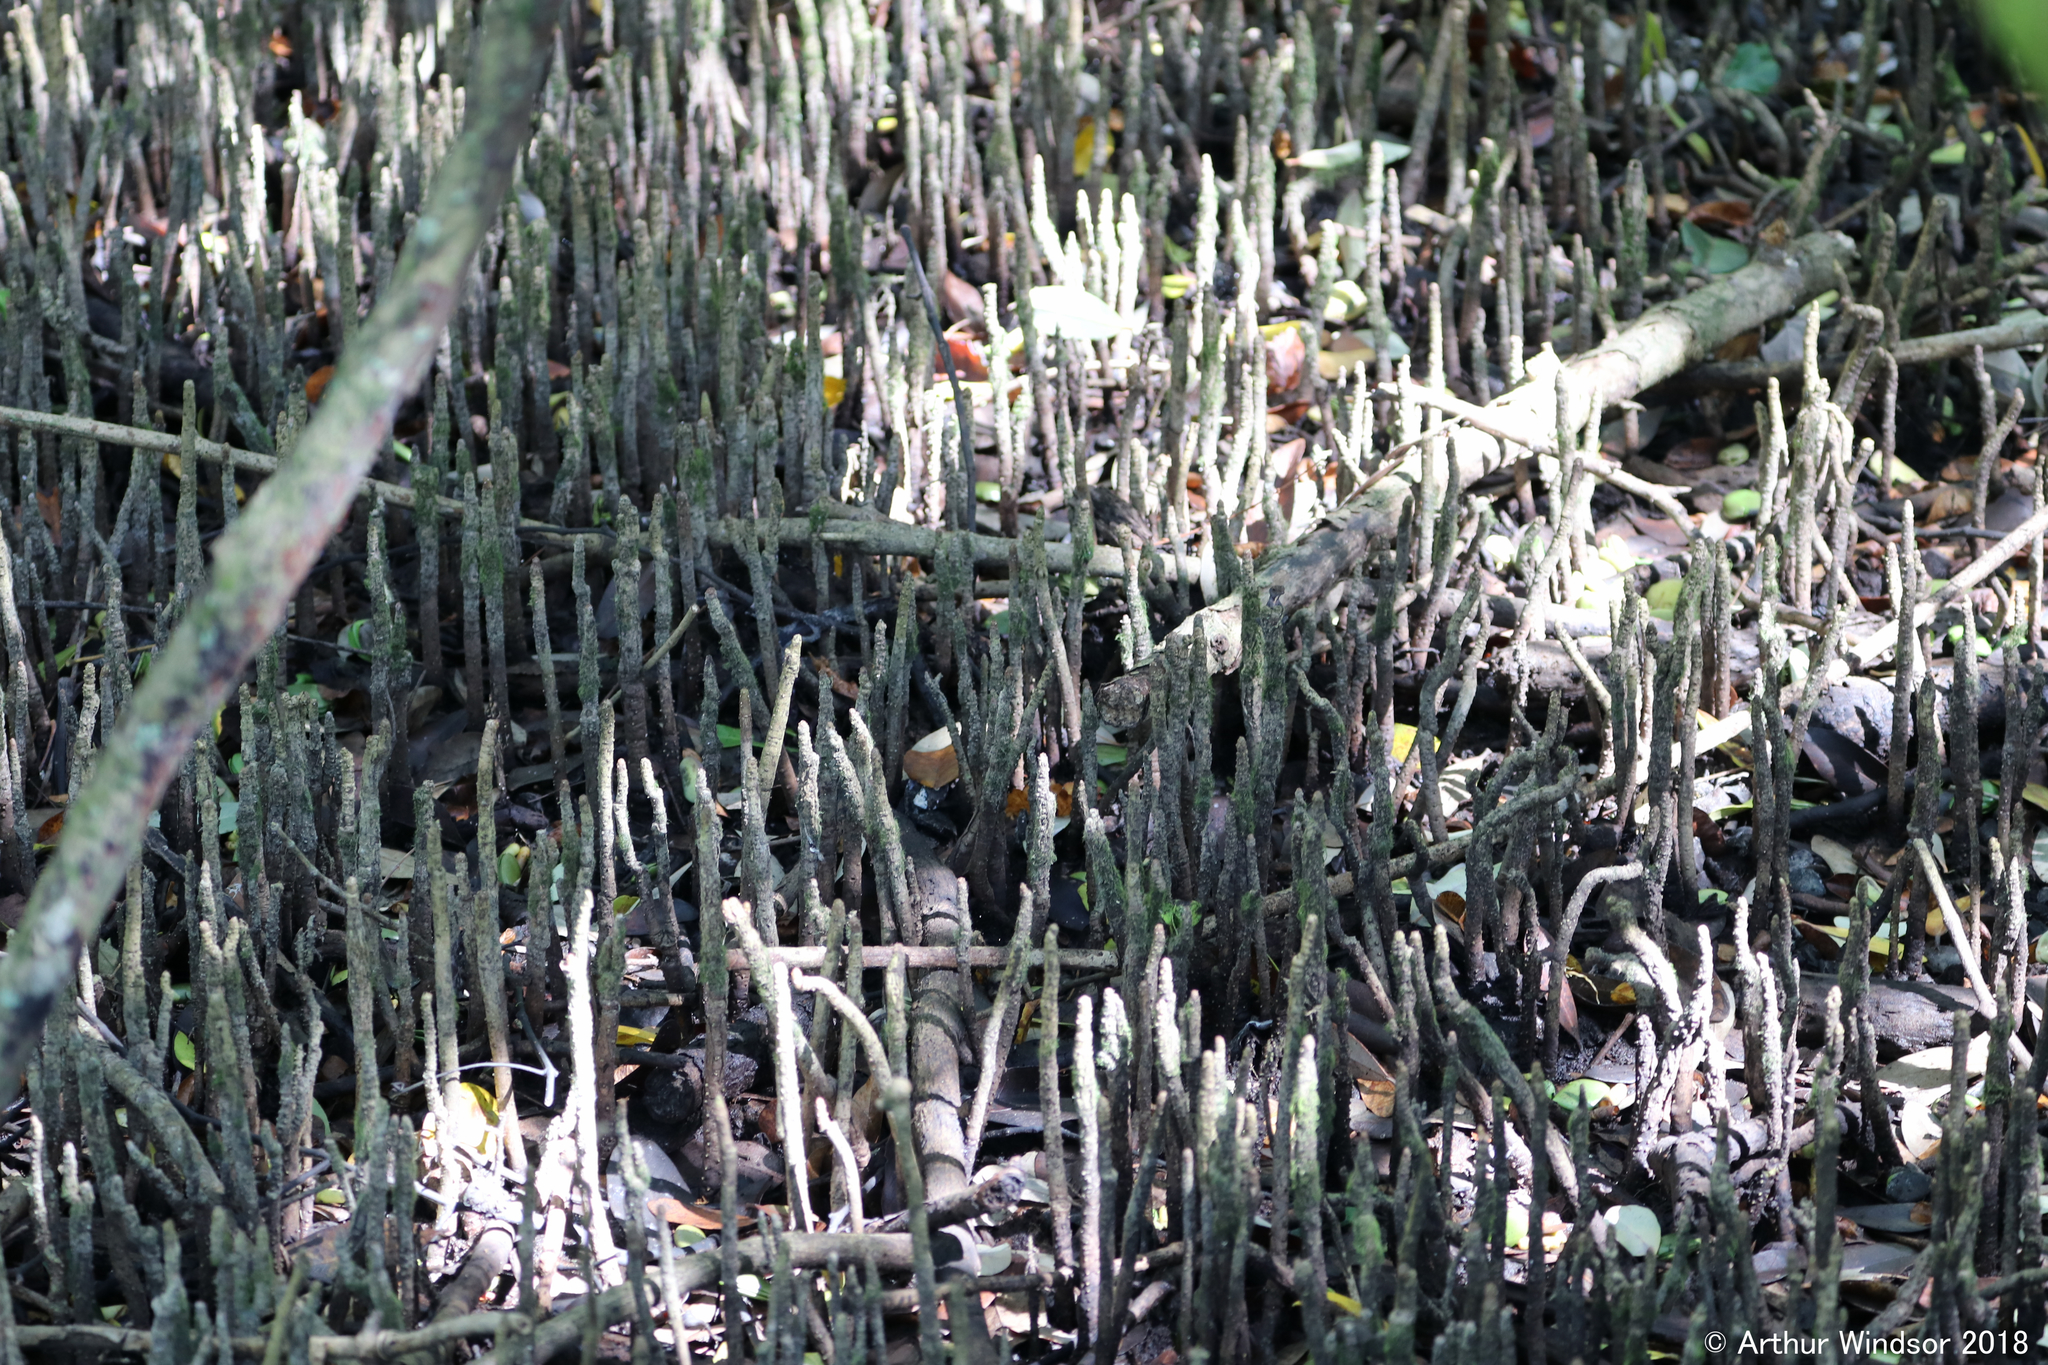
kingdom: Plantae
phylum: Tracheophyta
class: Magnoliopsida
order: Lamiales
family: Acanthaceae
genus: Avicennia
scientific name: Avicennia germinans
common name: Black mangrove
